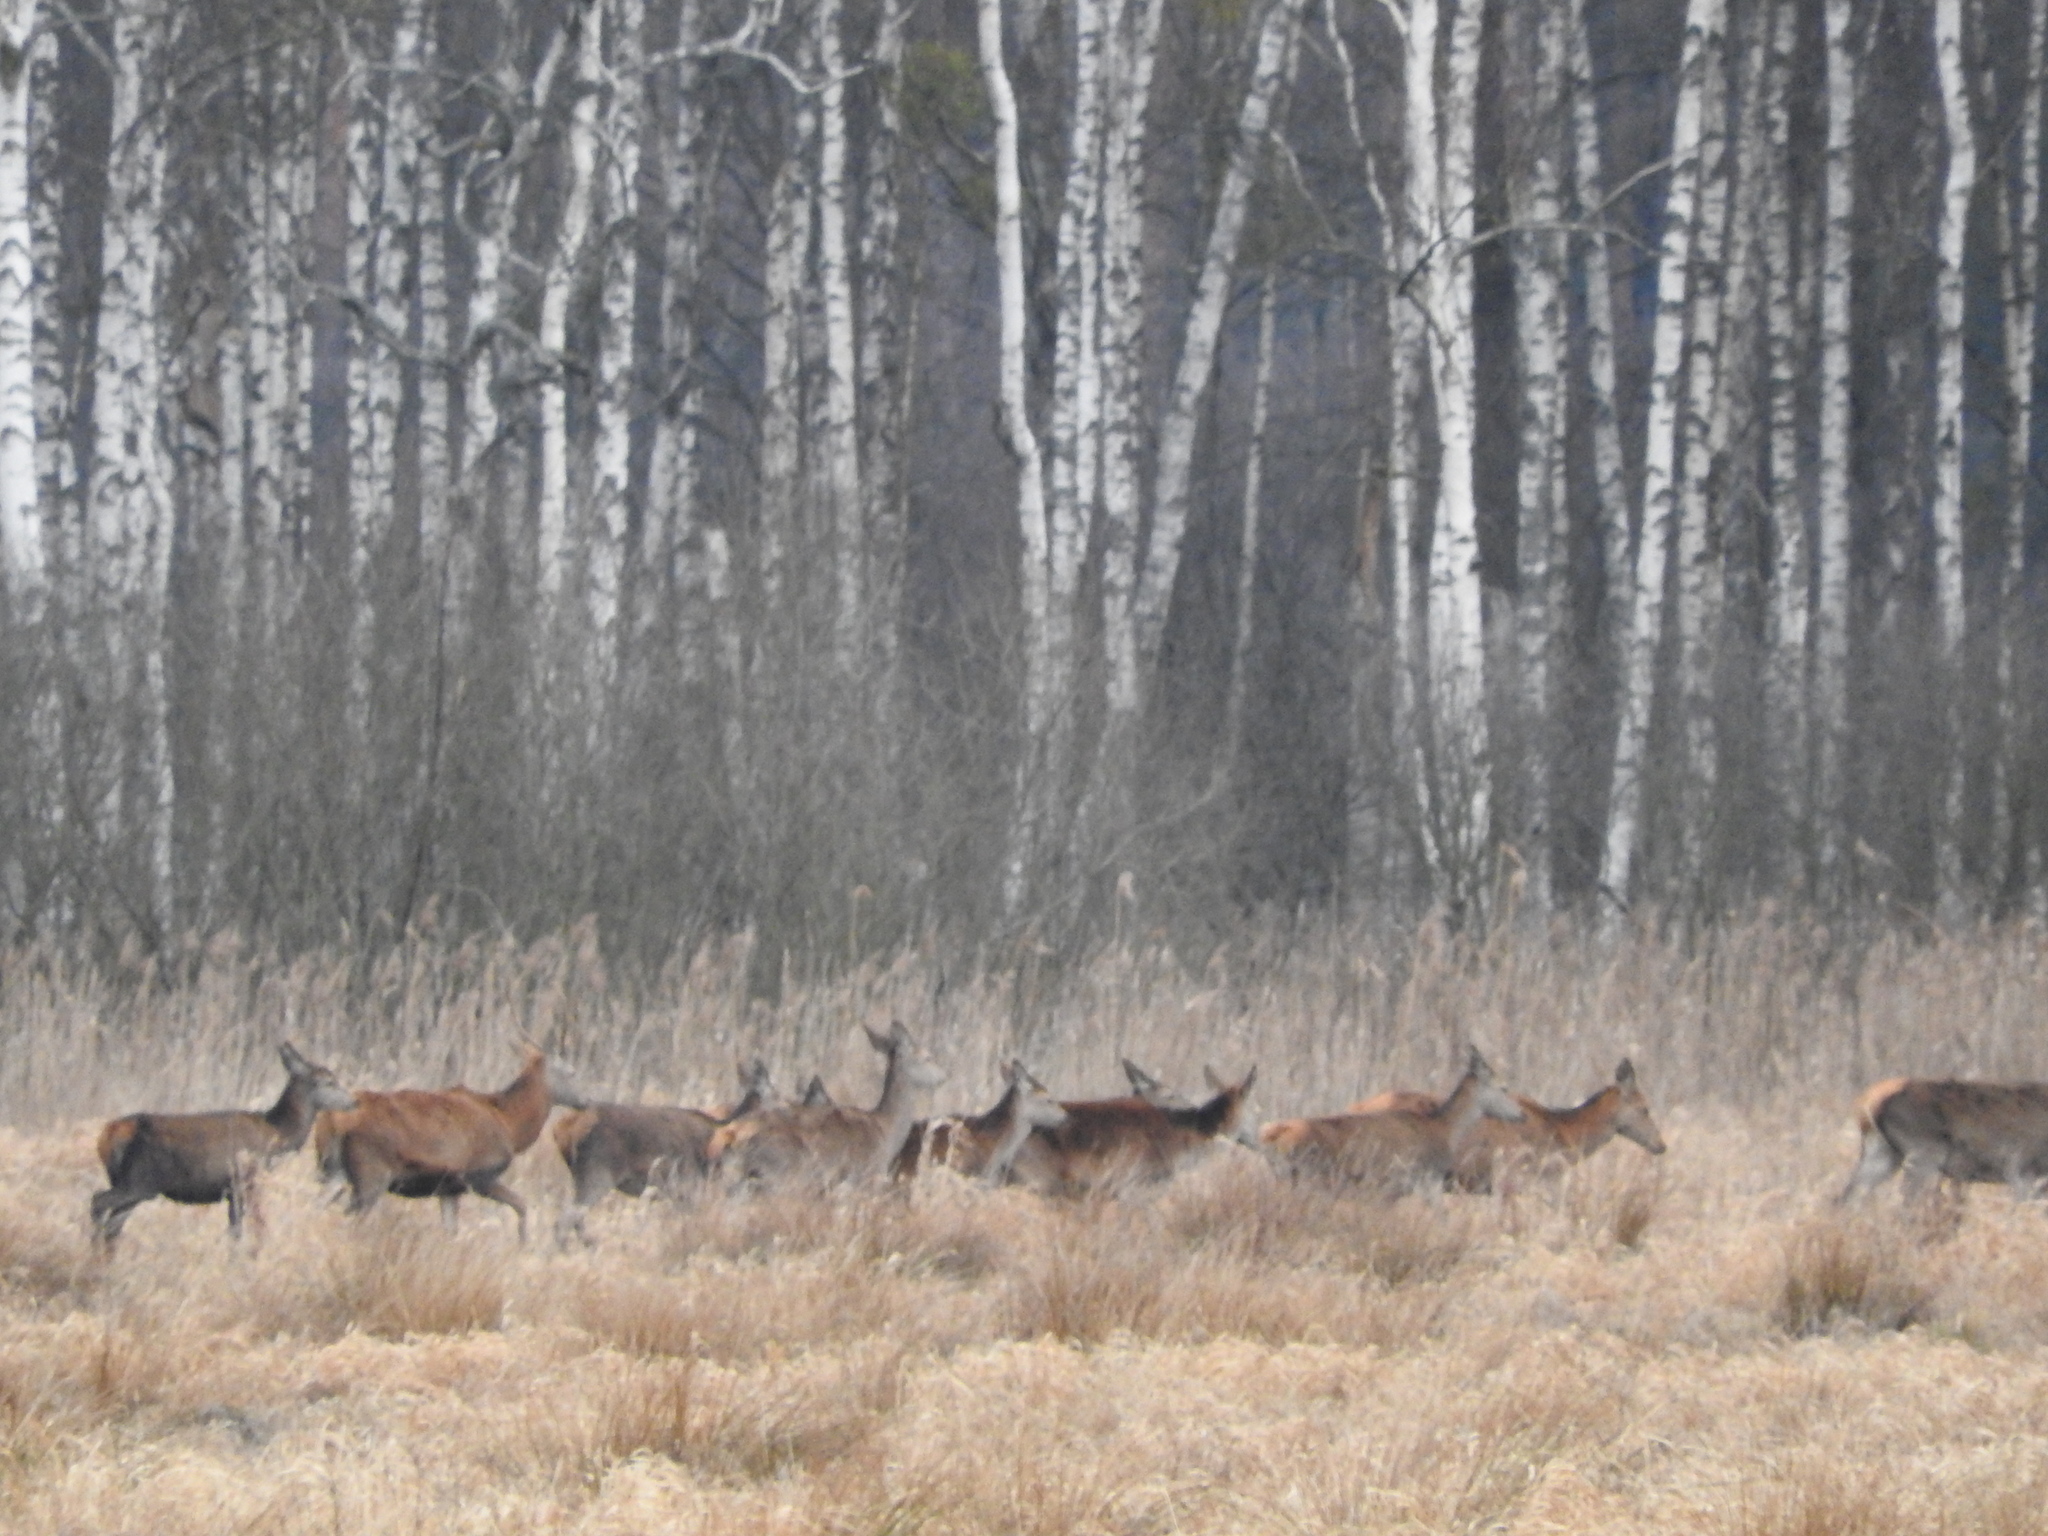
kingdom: Animalia
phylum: Chordata
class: Mammalia
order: Artiodactyla
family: Cervidae
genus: Cervus
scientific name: Cervus elaphus
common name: Red deer
